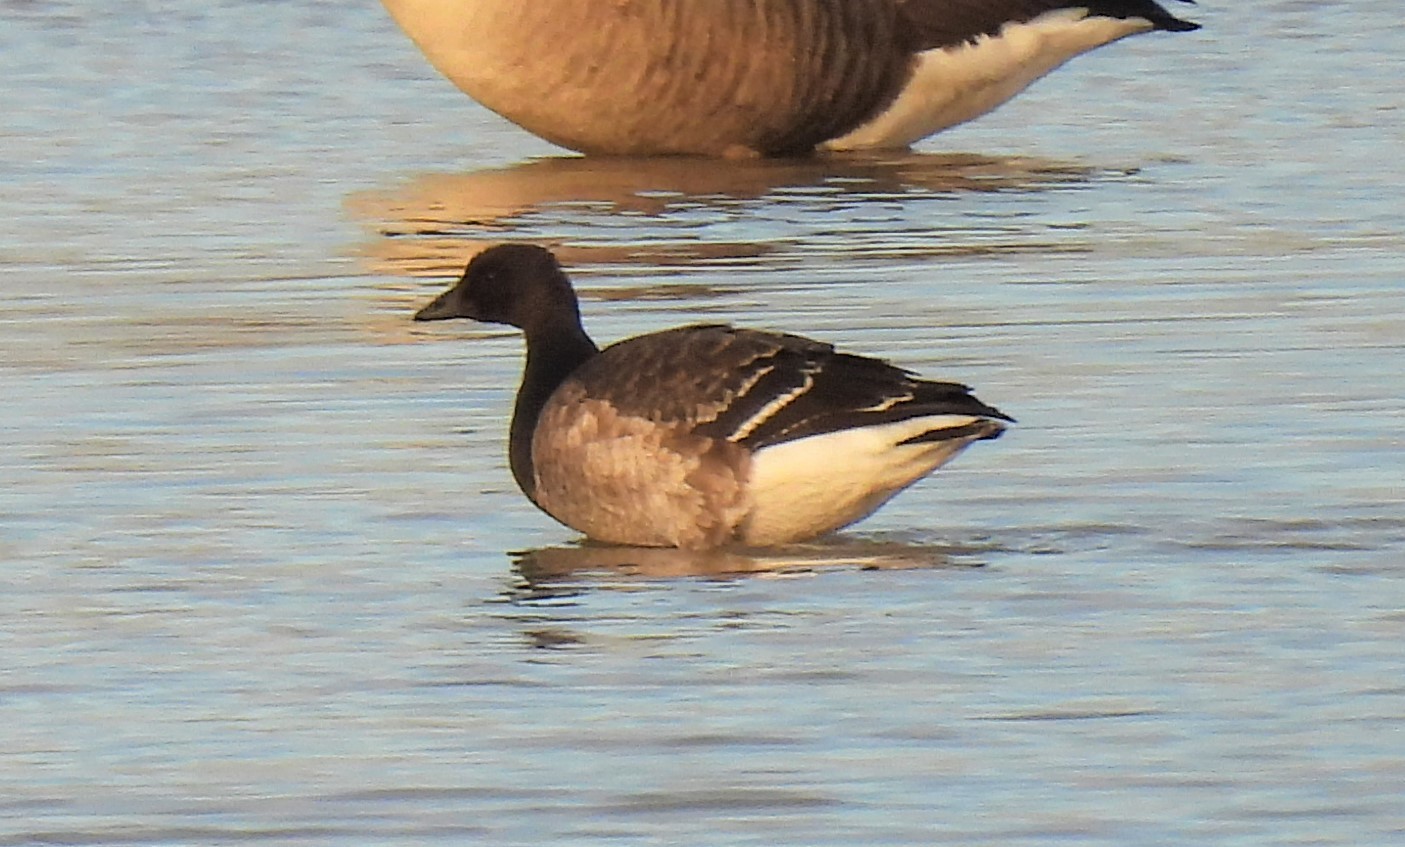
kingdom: Animalia
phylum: Chordata
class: Aves
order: Anseriformes
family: Anatidae
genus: Branta
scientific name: Branta bernicla
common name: Brant goose
